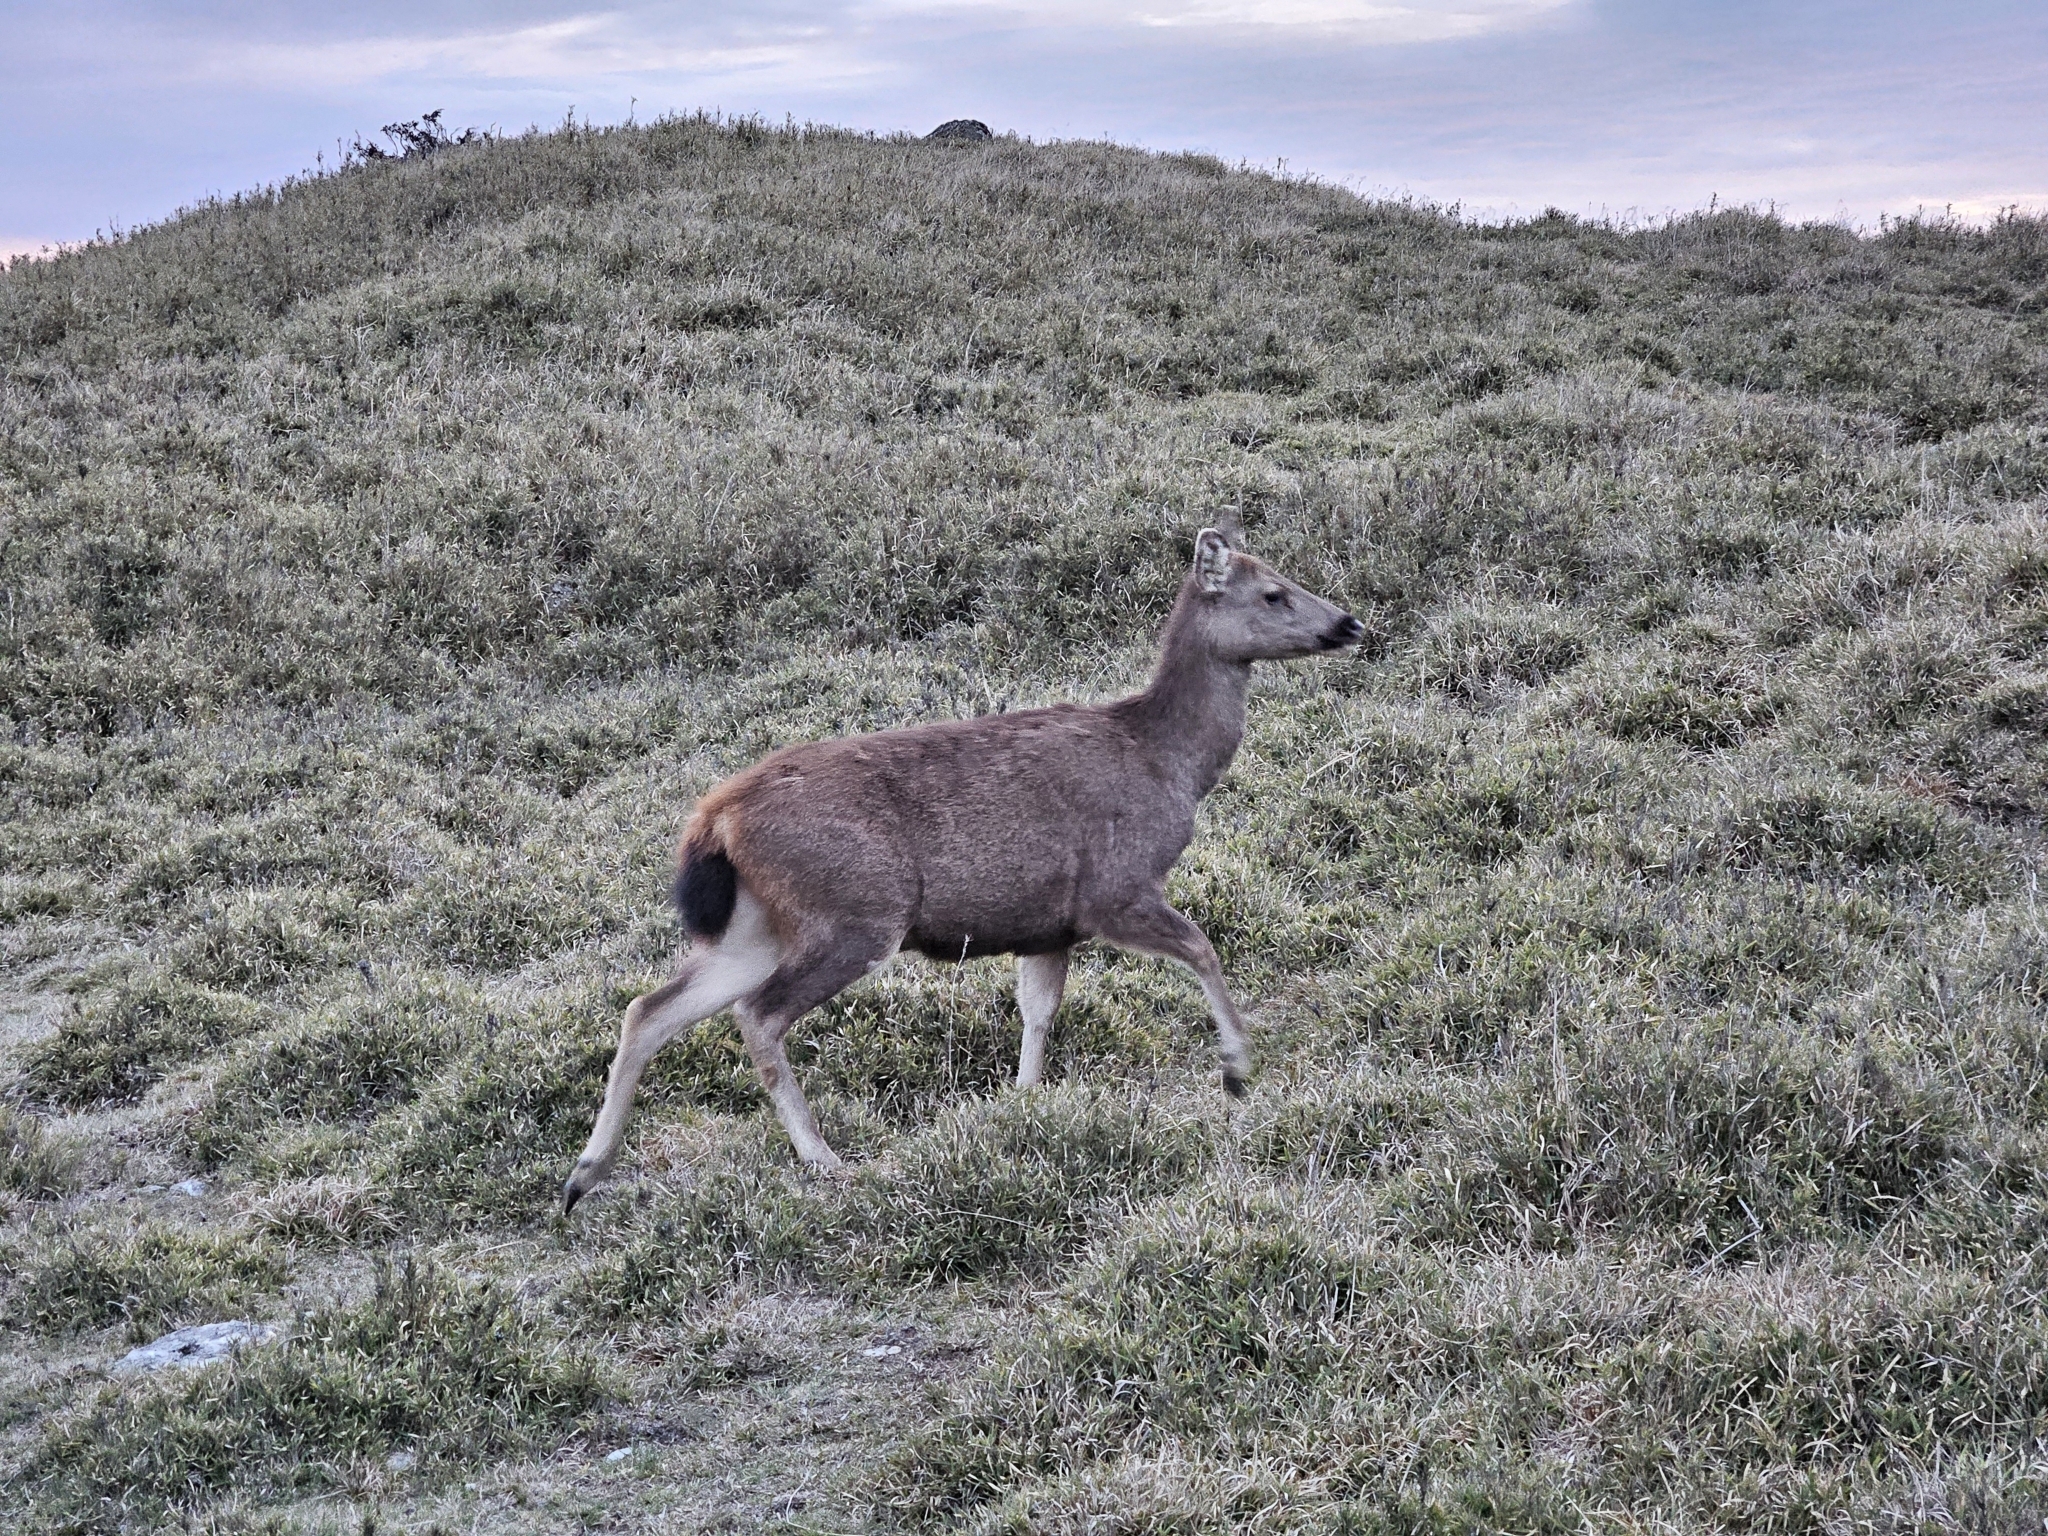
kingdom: Animalia
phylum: Chordata
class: Mammalia
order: Artiodactyla
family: Cervidae
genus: Rusa
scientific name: Rusa unicolor
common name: Sambar
